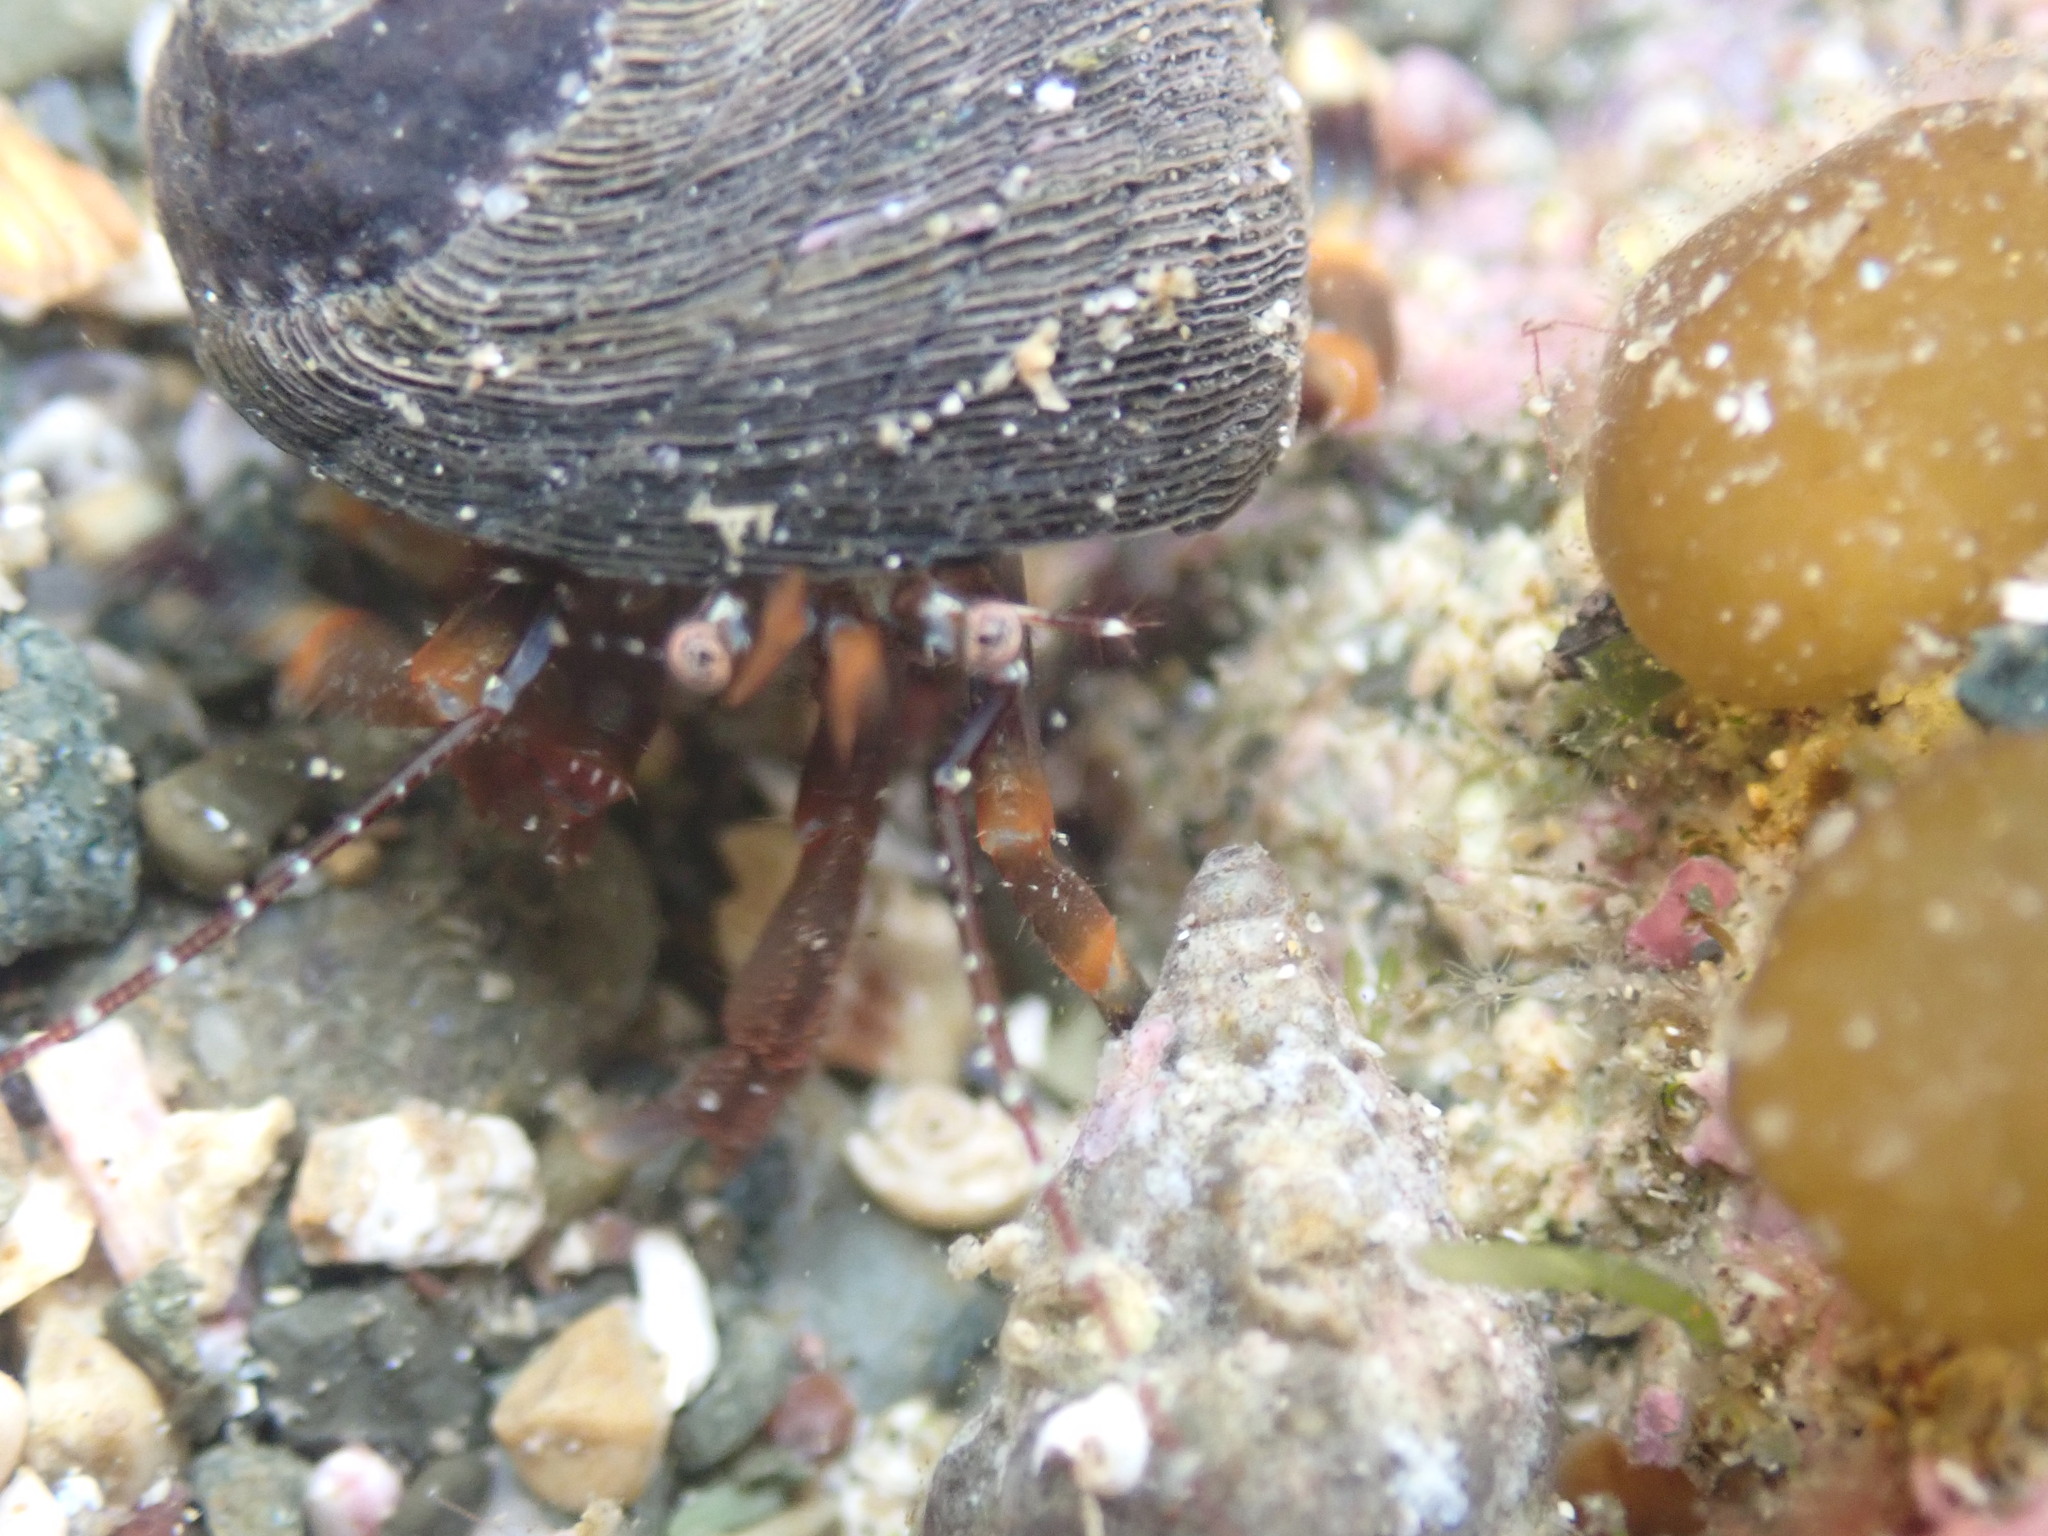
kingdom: Animalia
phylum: Arthropoda
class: Malacostraca
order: Decapoda
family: Paguridae
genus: Pagurixus
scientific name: Pagurixus hectori
